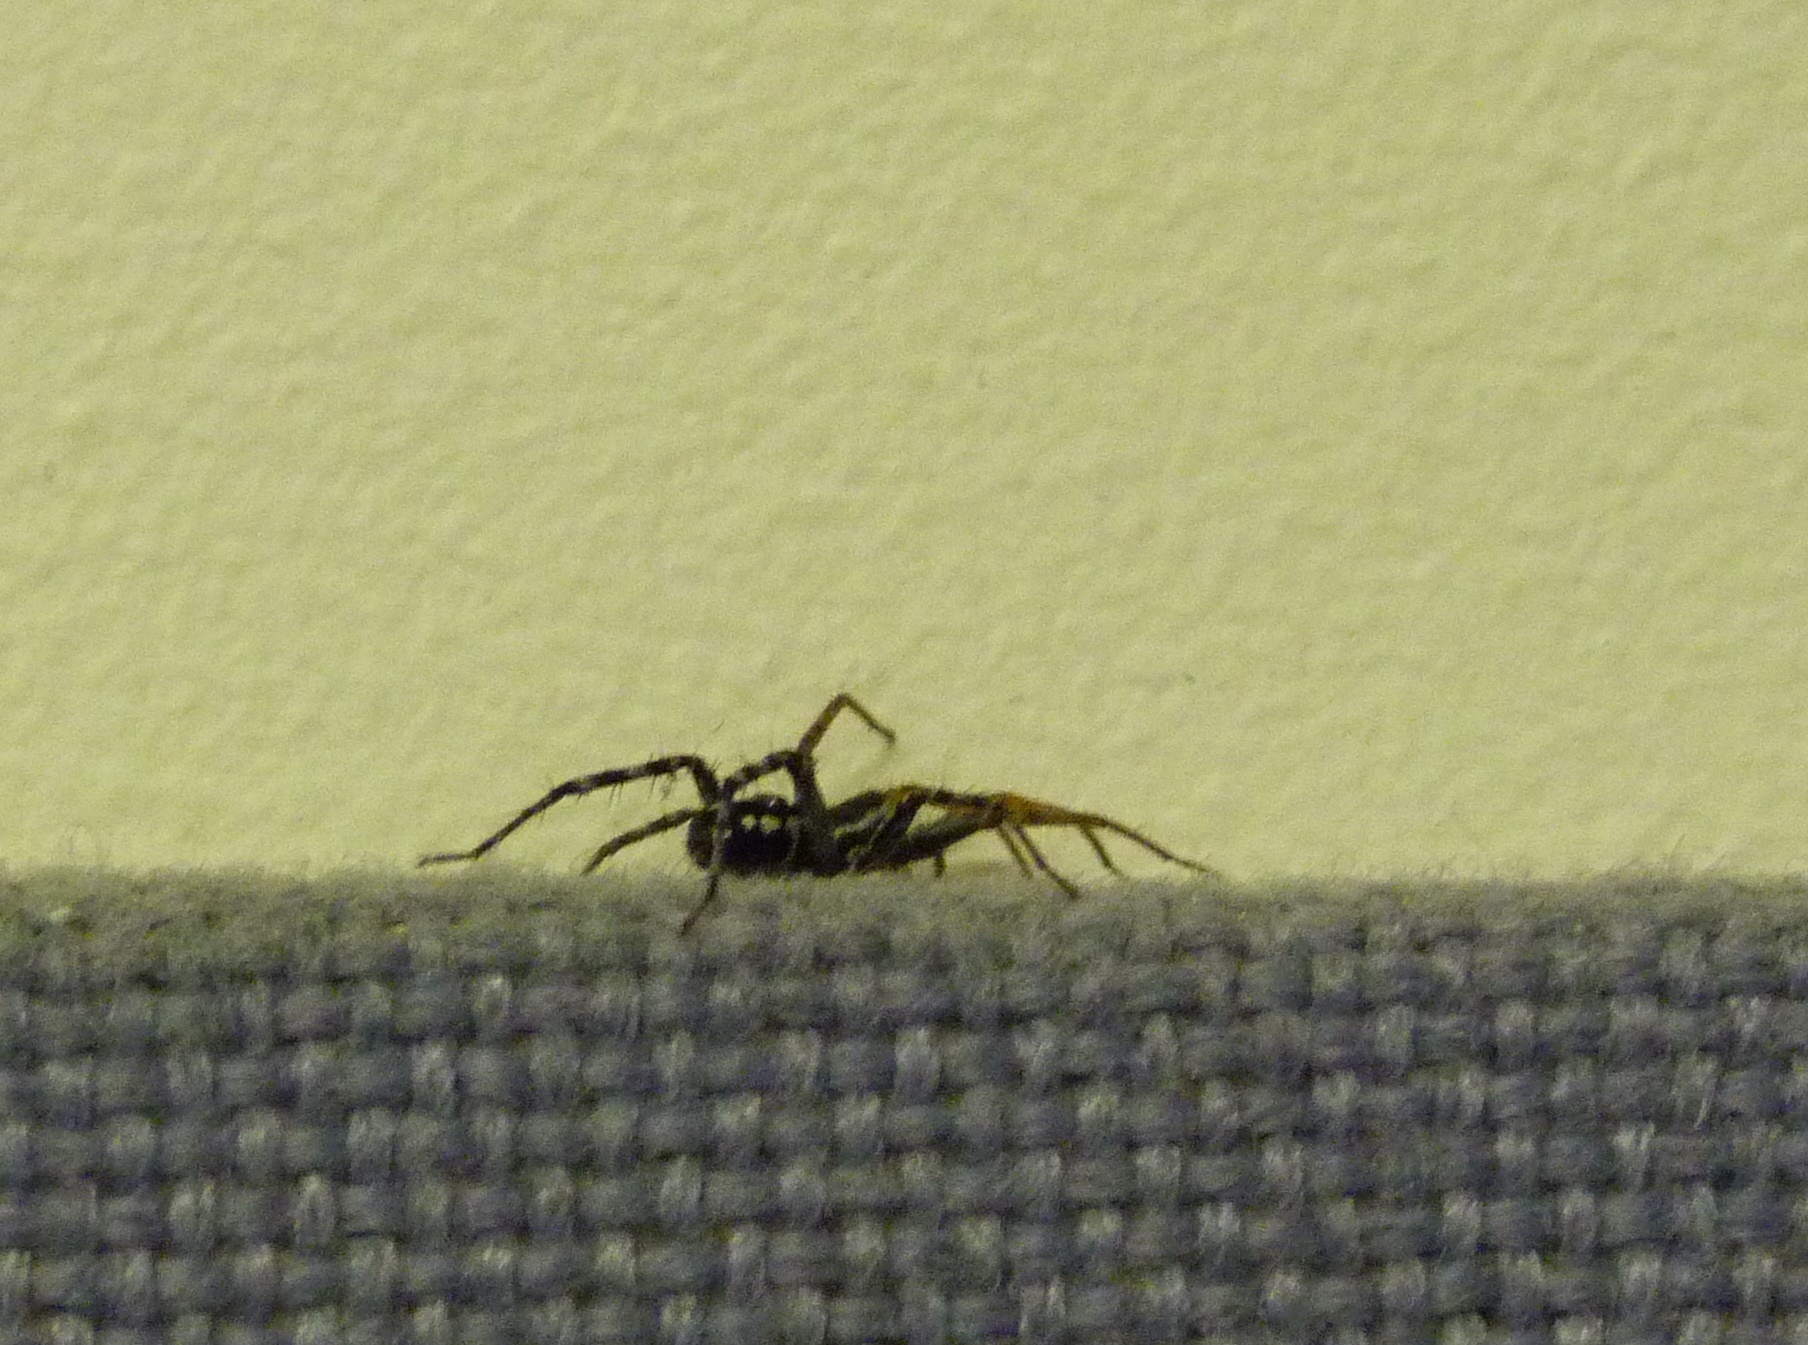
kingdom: Animalia
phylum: Arthropoda
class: Arachnida
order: Araneae
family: Corinnidae
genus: Nyssus
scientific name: Nyssus coloripes
